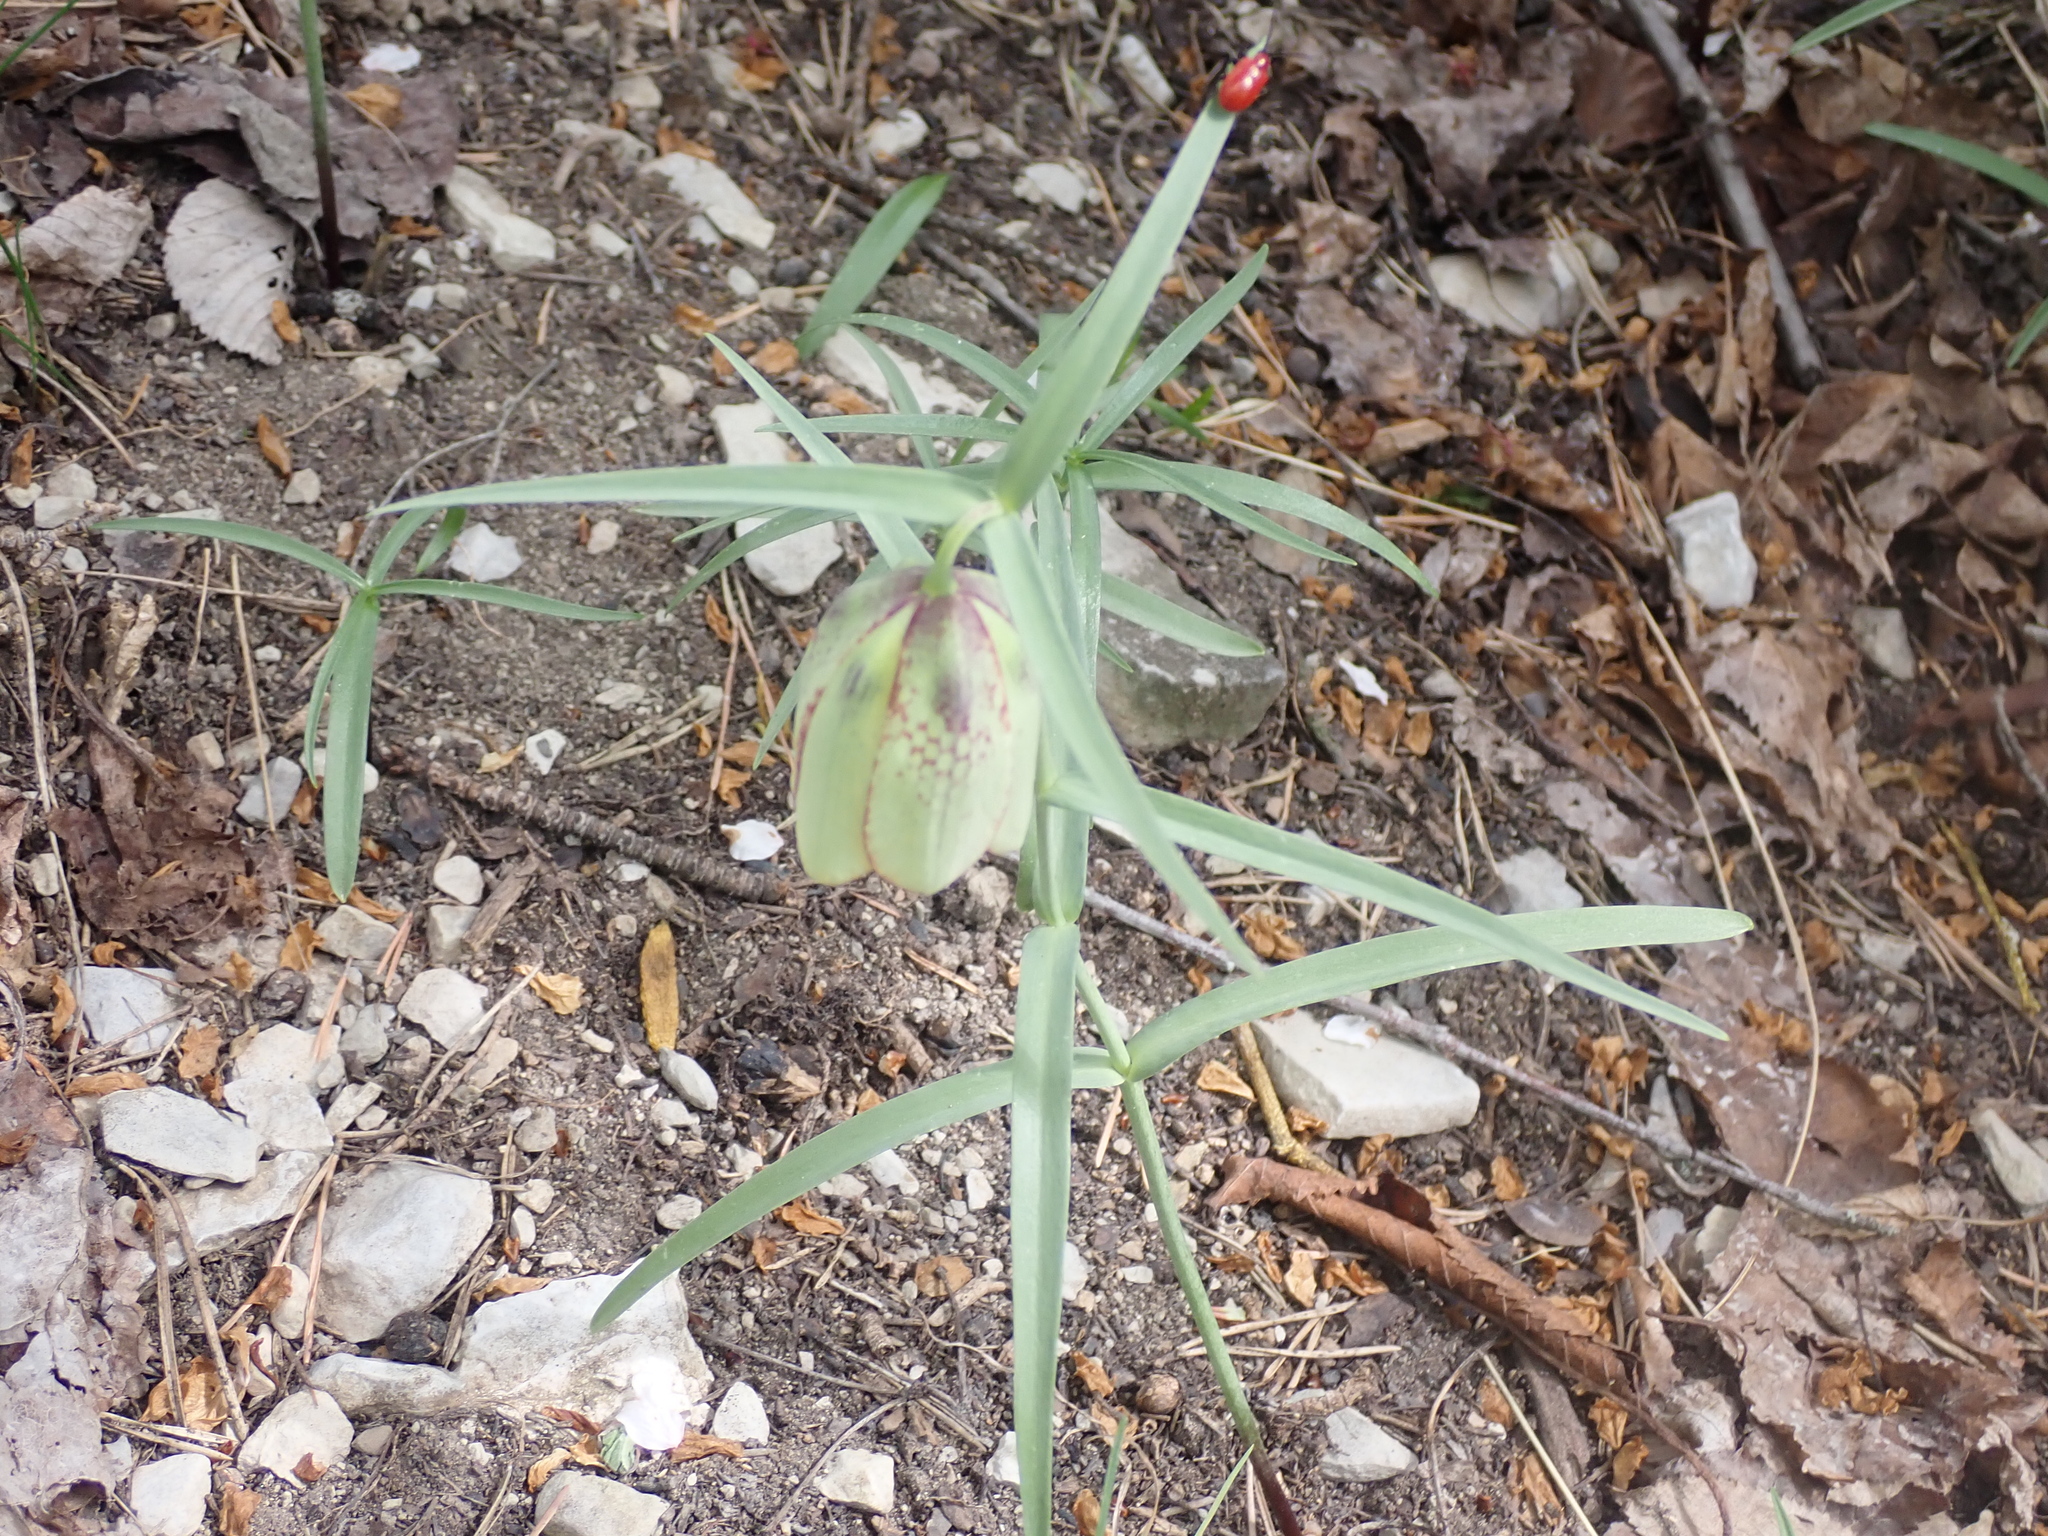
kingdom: Plantae
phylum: Tracheophyta
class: Liliopsida
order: Liliales
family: Liliaceae
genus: Fritillaria
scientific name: Fritillaria involucrata
